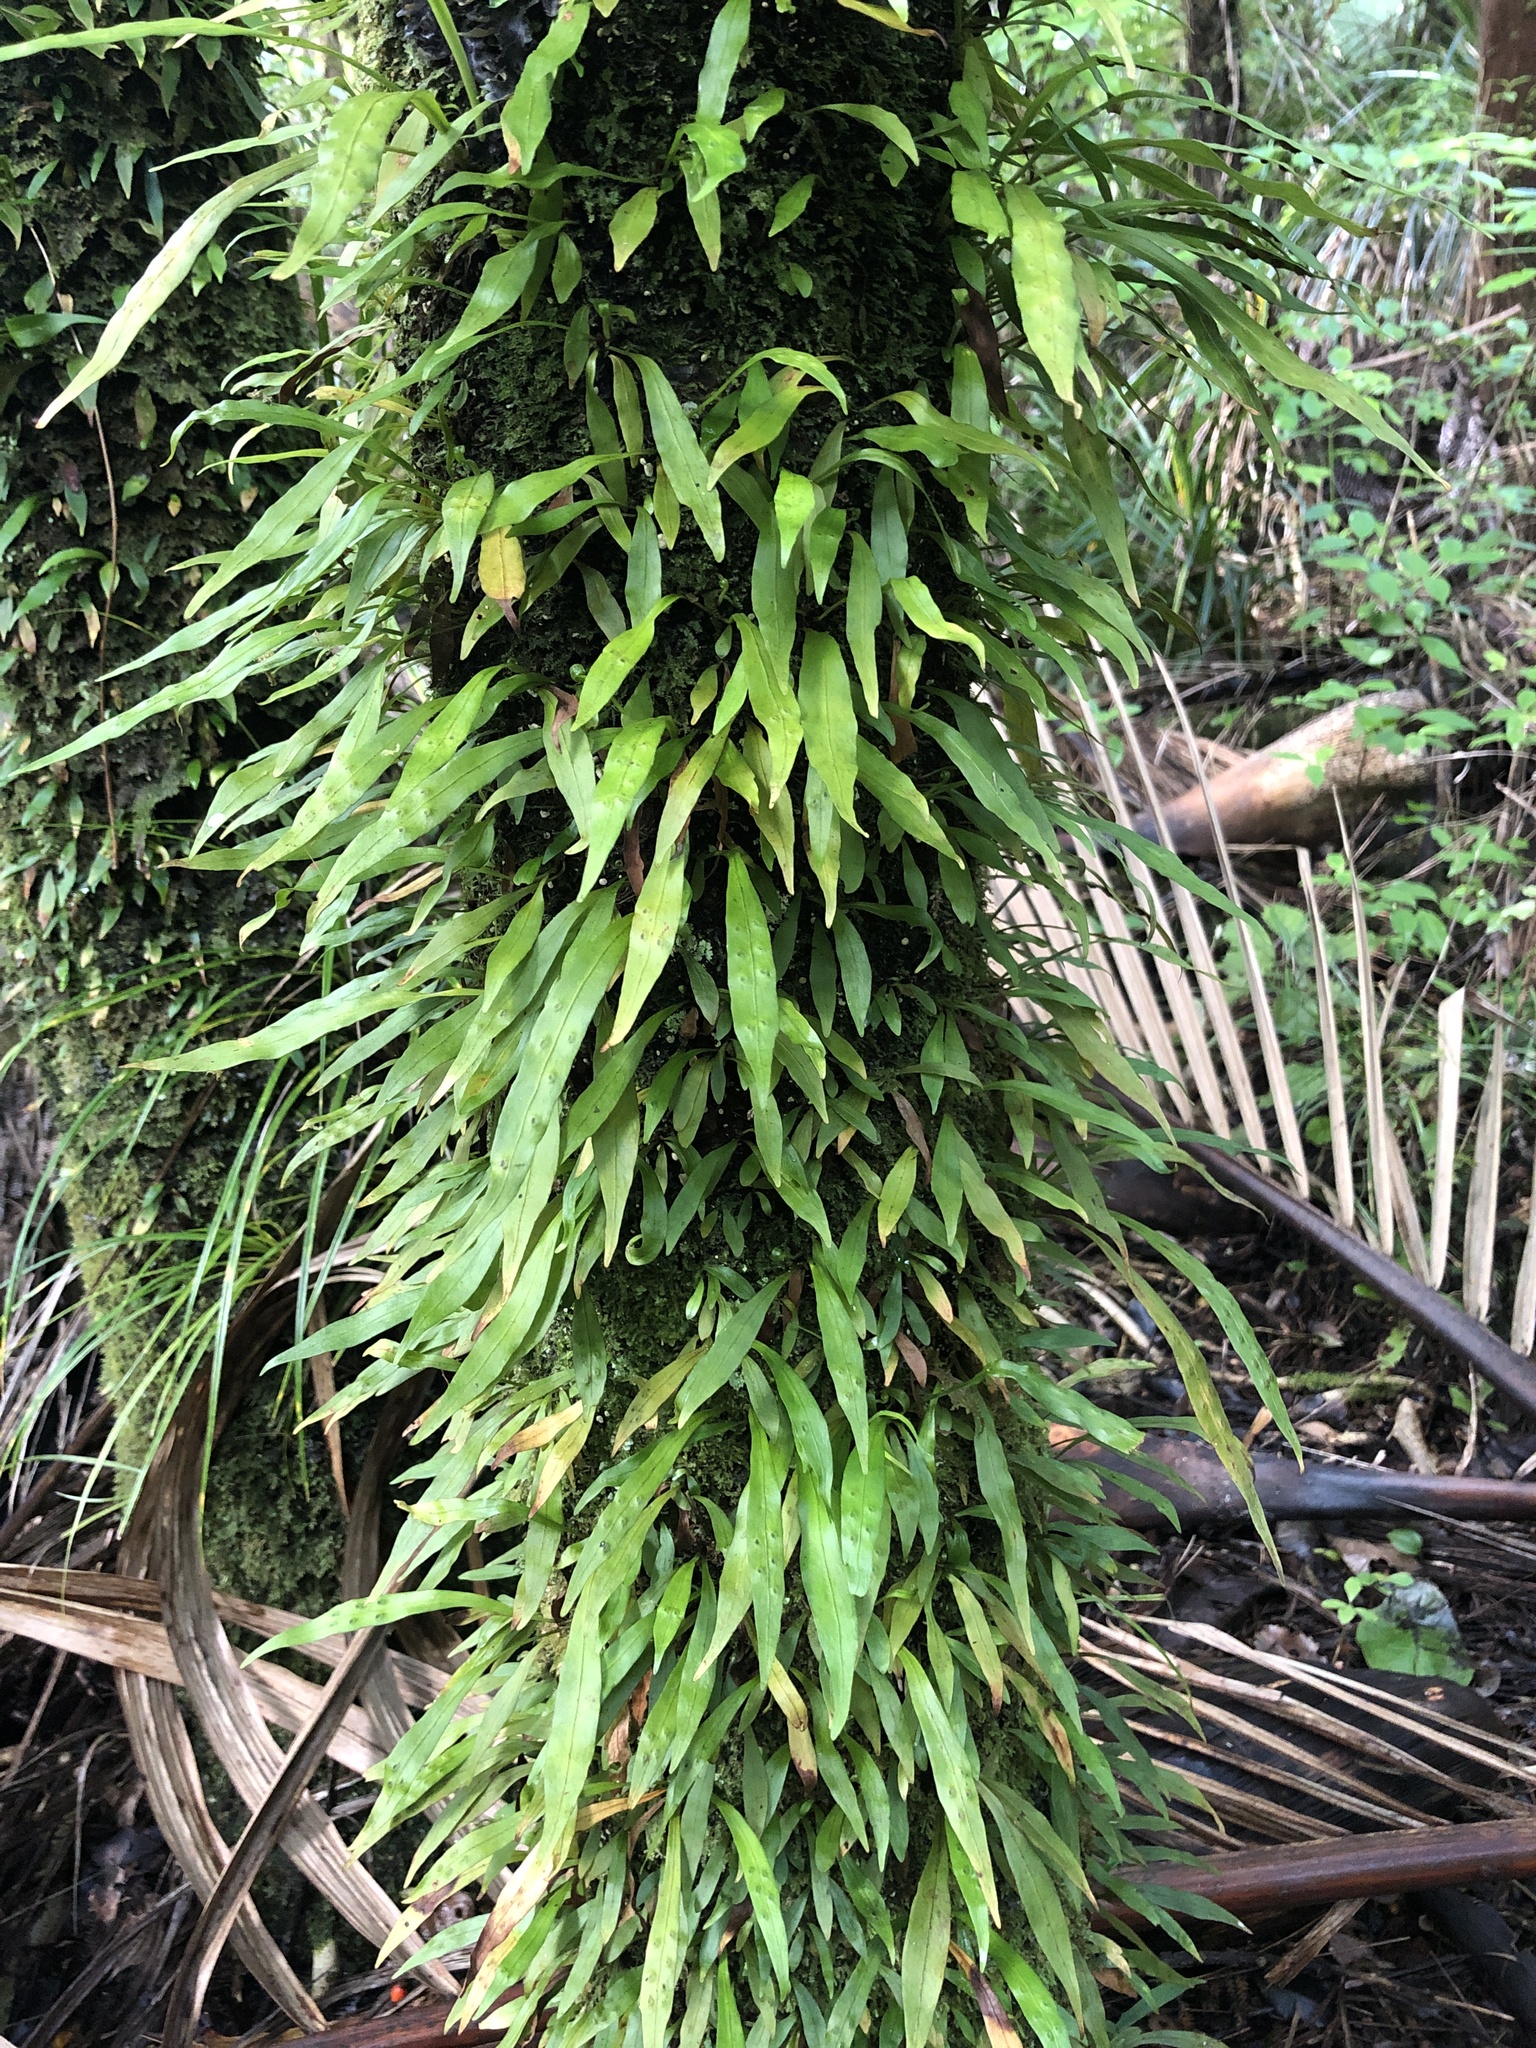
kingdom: Plantae
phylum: Tracheophyta
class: Polypodiopsida
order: Polypodiales
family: Polypodiaceae
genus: Loxogramme
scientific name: Loxogramme dictyopteris
